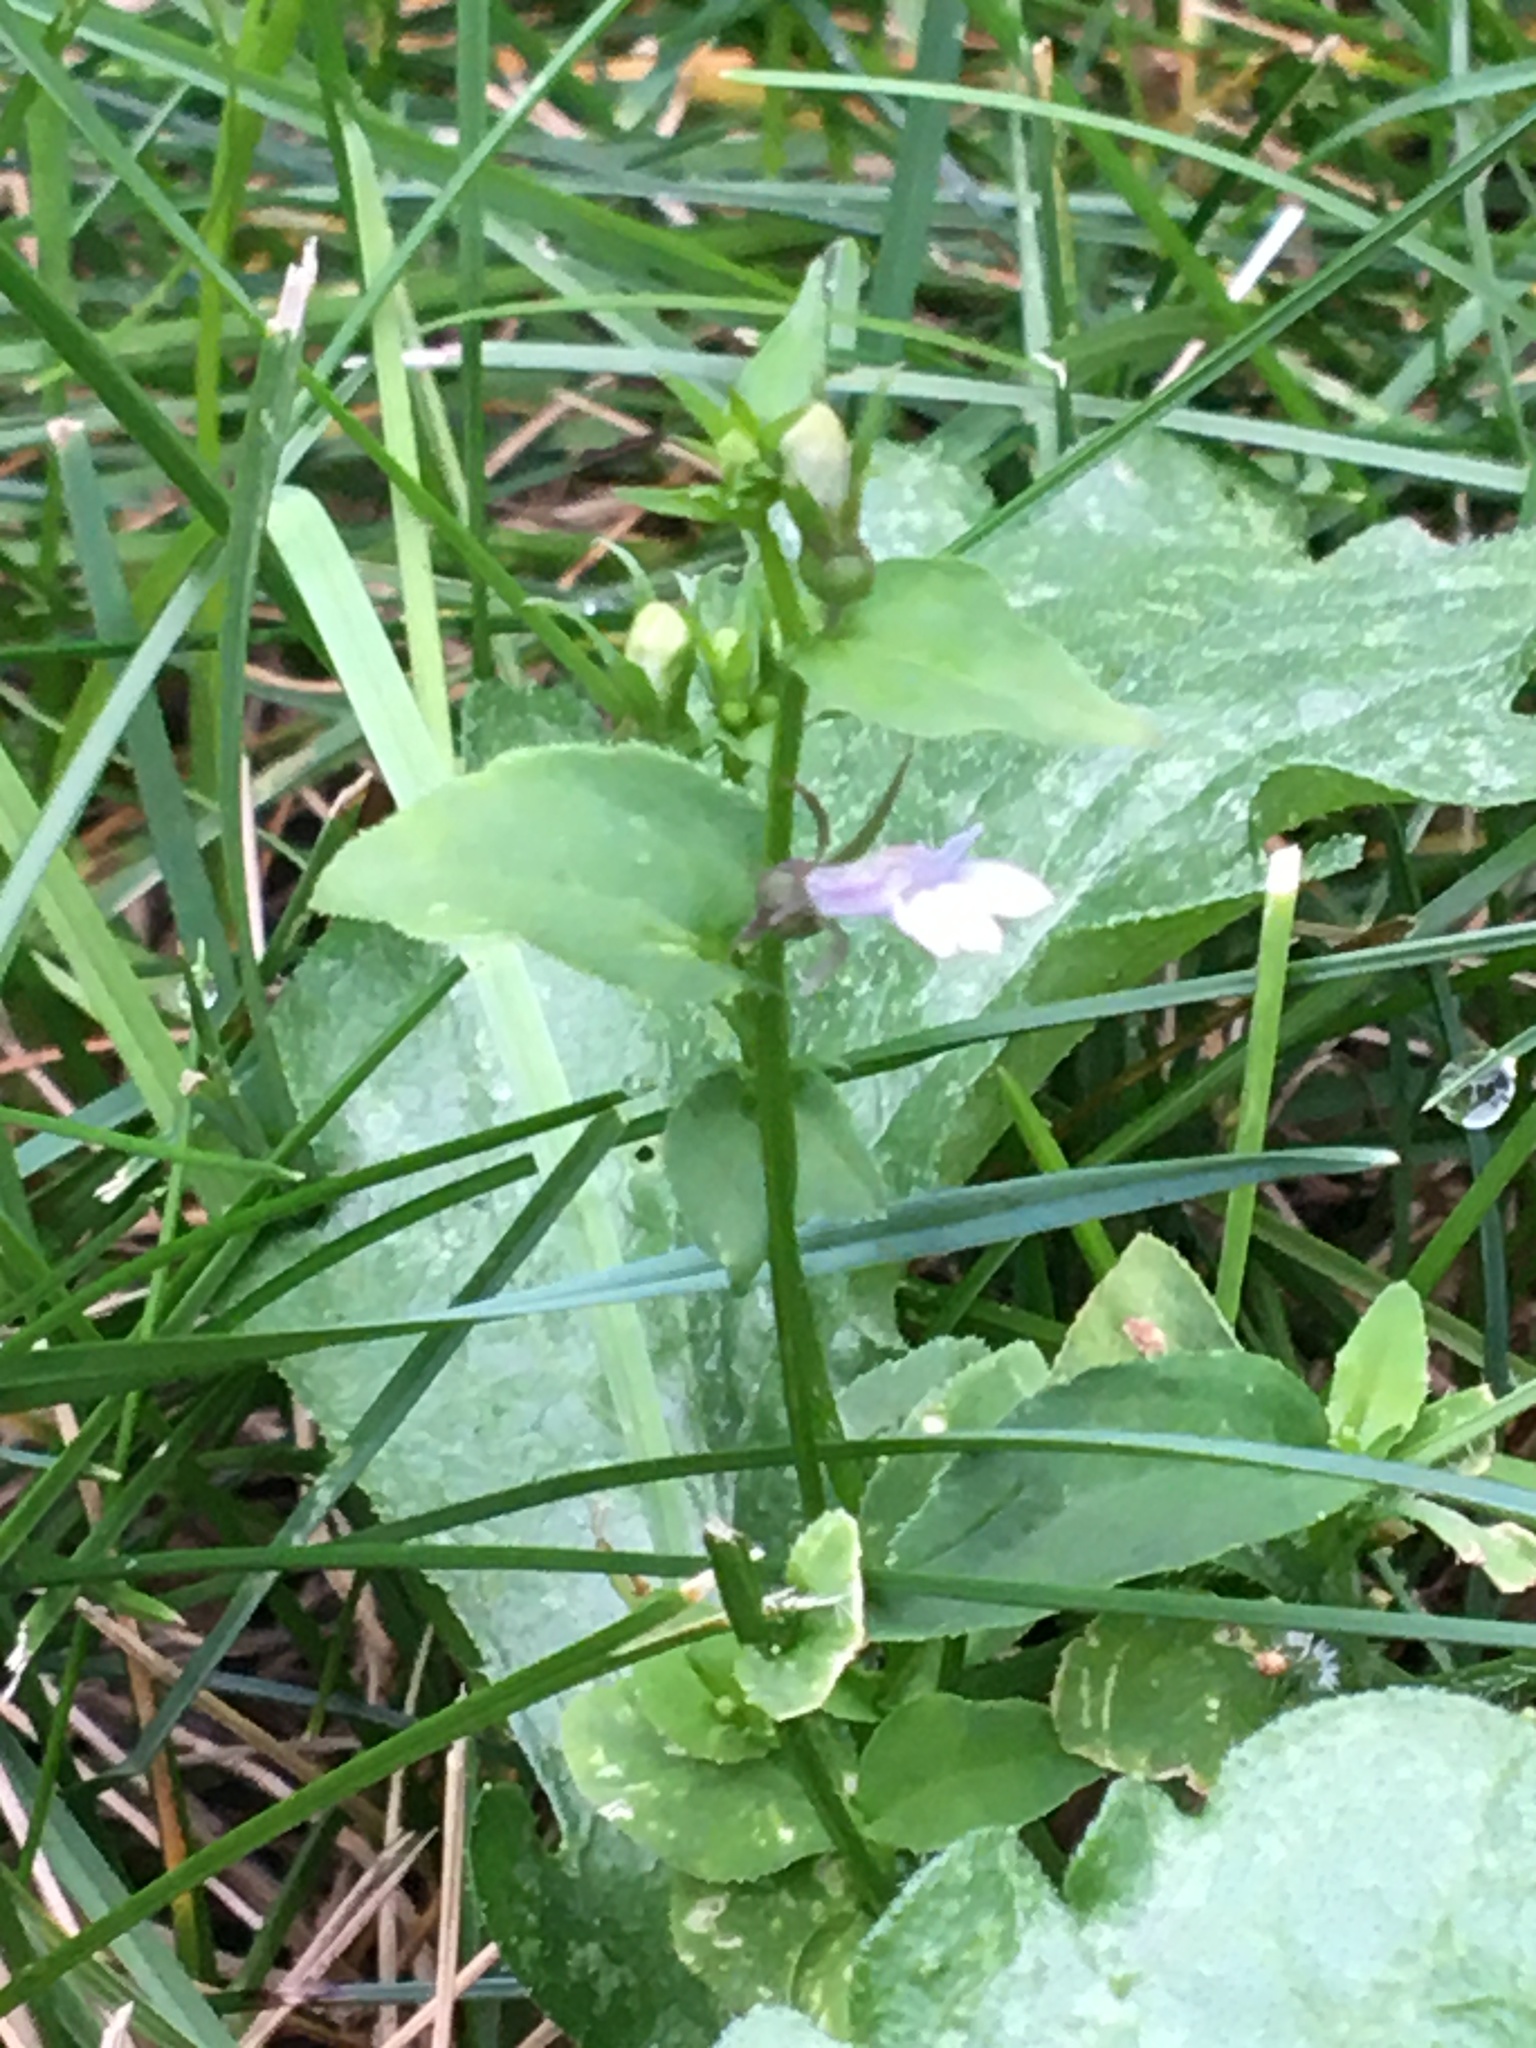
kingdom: Plantae
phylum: Tracheophyta
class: Magnoliopsida
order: Asterales
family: Campanulaceae
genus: Lobelia
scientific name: Lobelia inflata
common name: Indian tobacco
